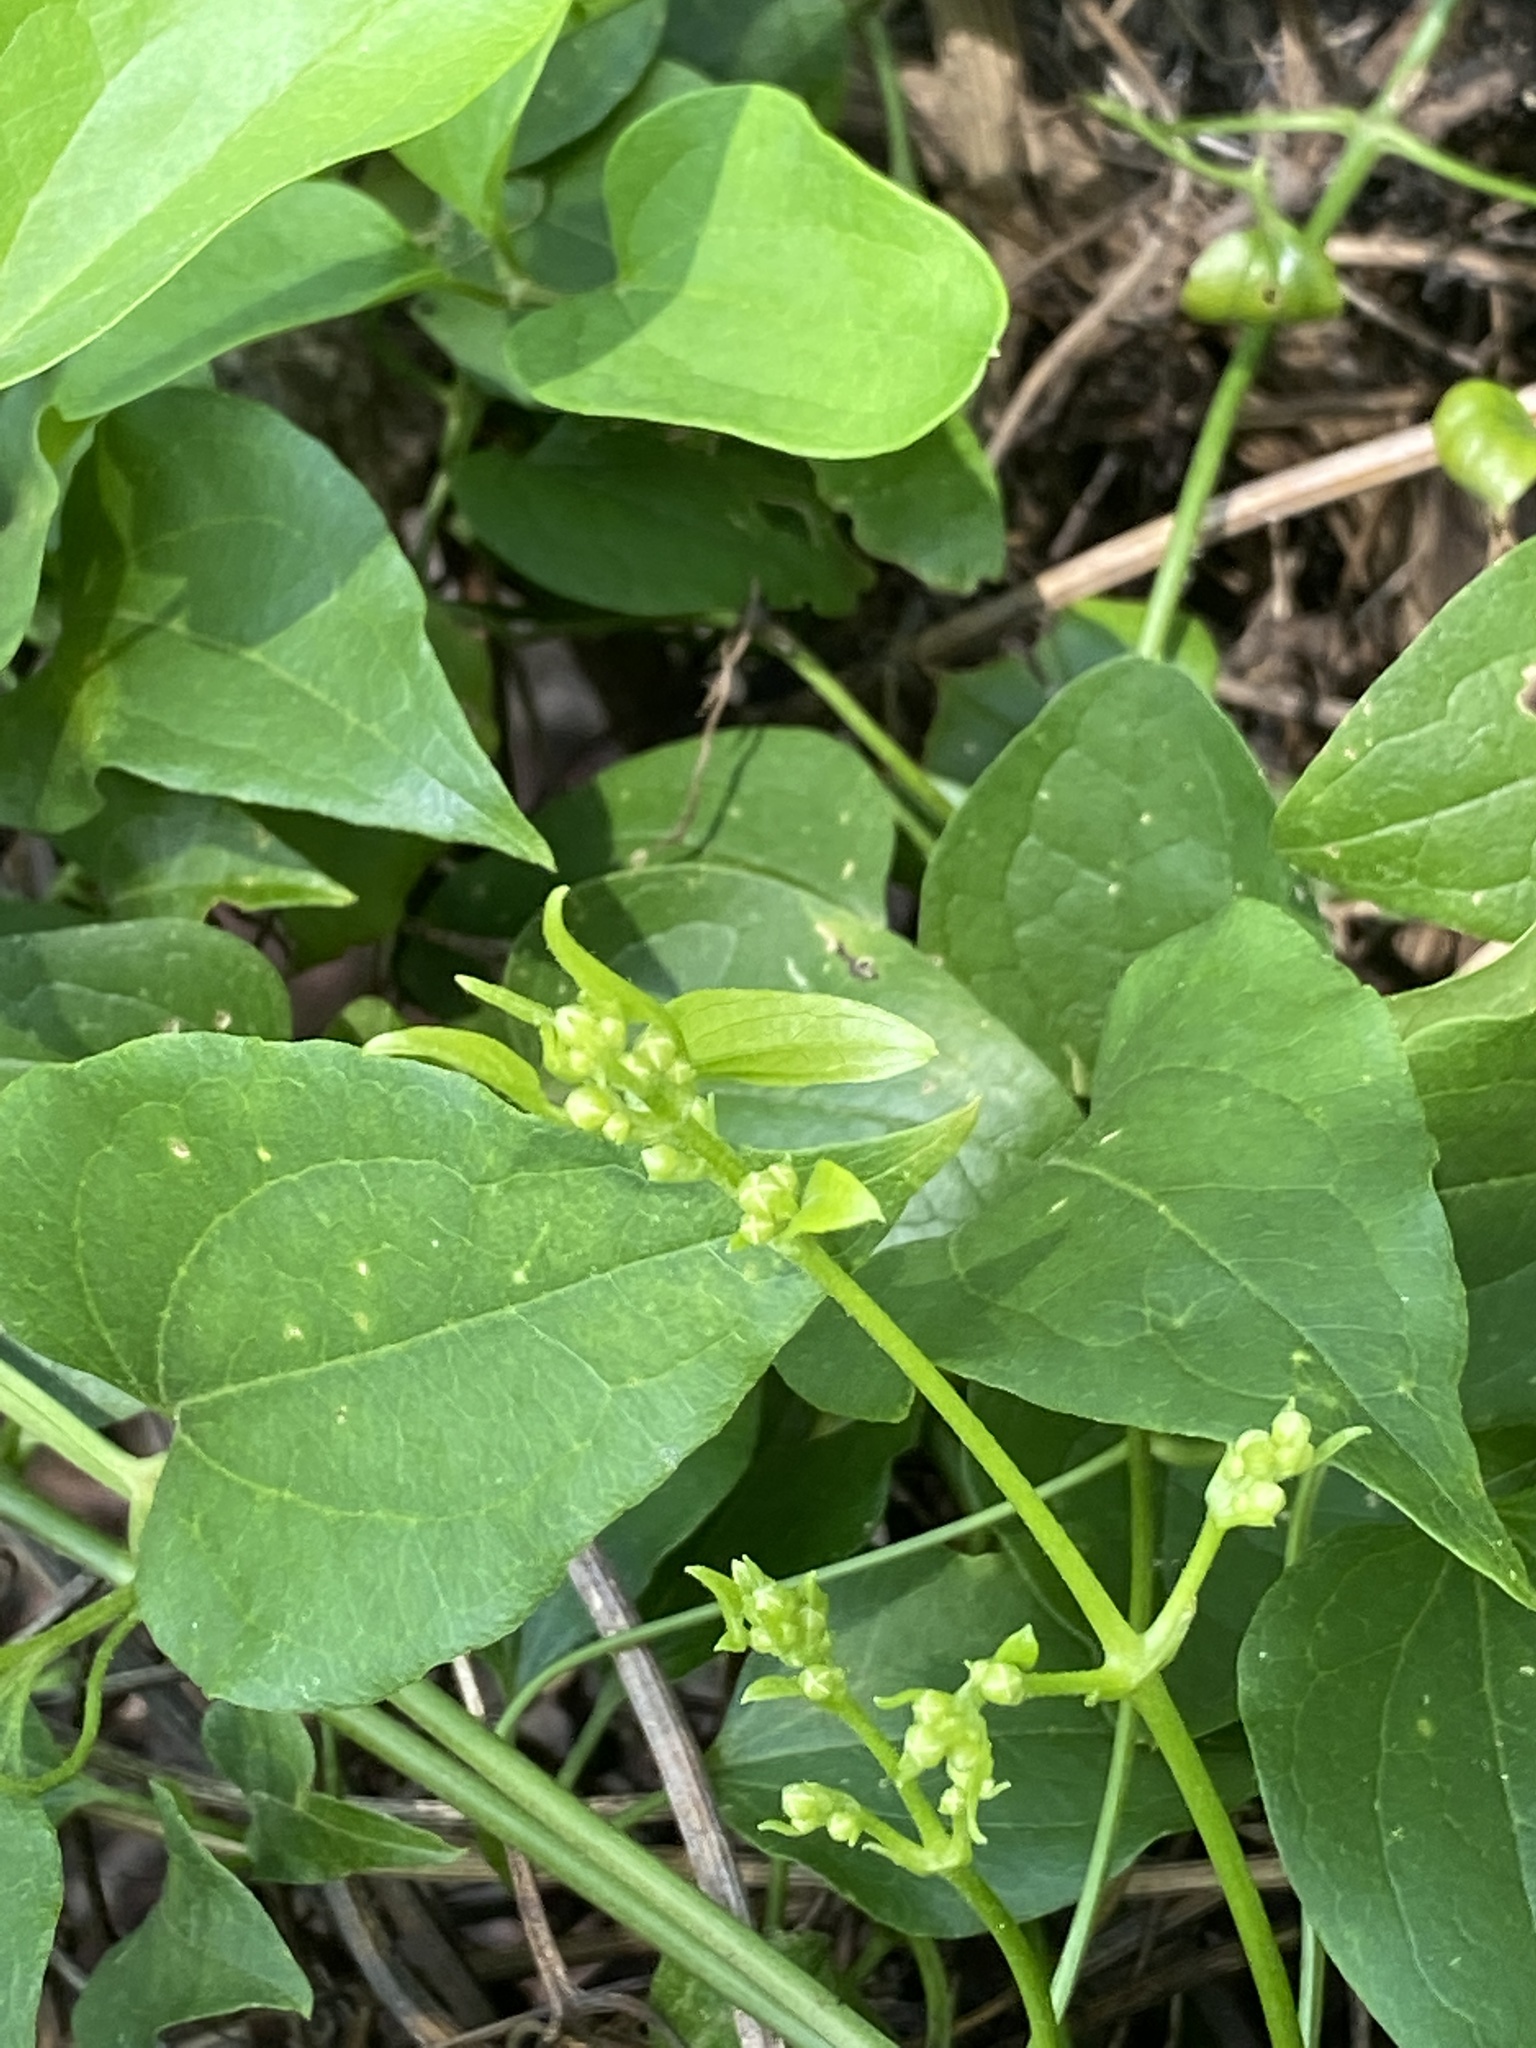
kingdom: Plantae
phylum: Tracheophyta
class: Magnoliopsida
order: Ranunculales
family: Ranunculaceae
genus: Clematis
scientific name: Clematis terniflora
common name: Sweet autumn clematis
